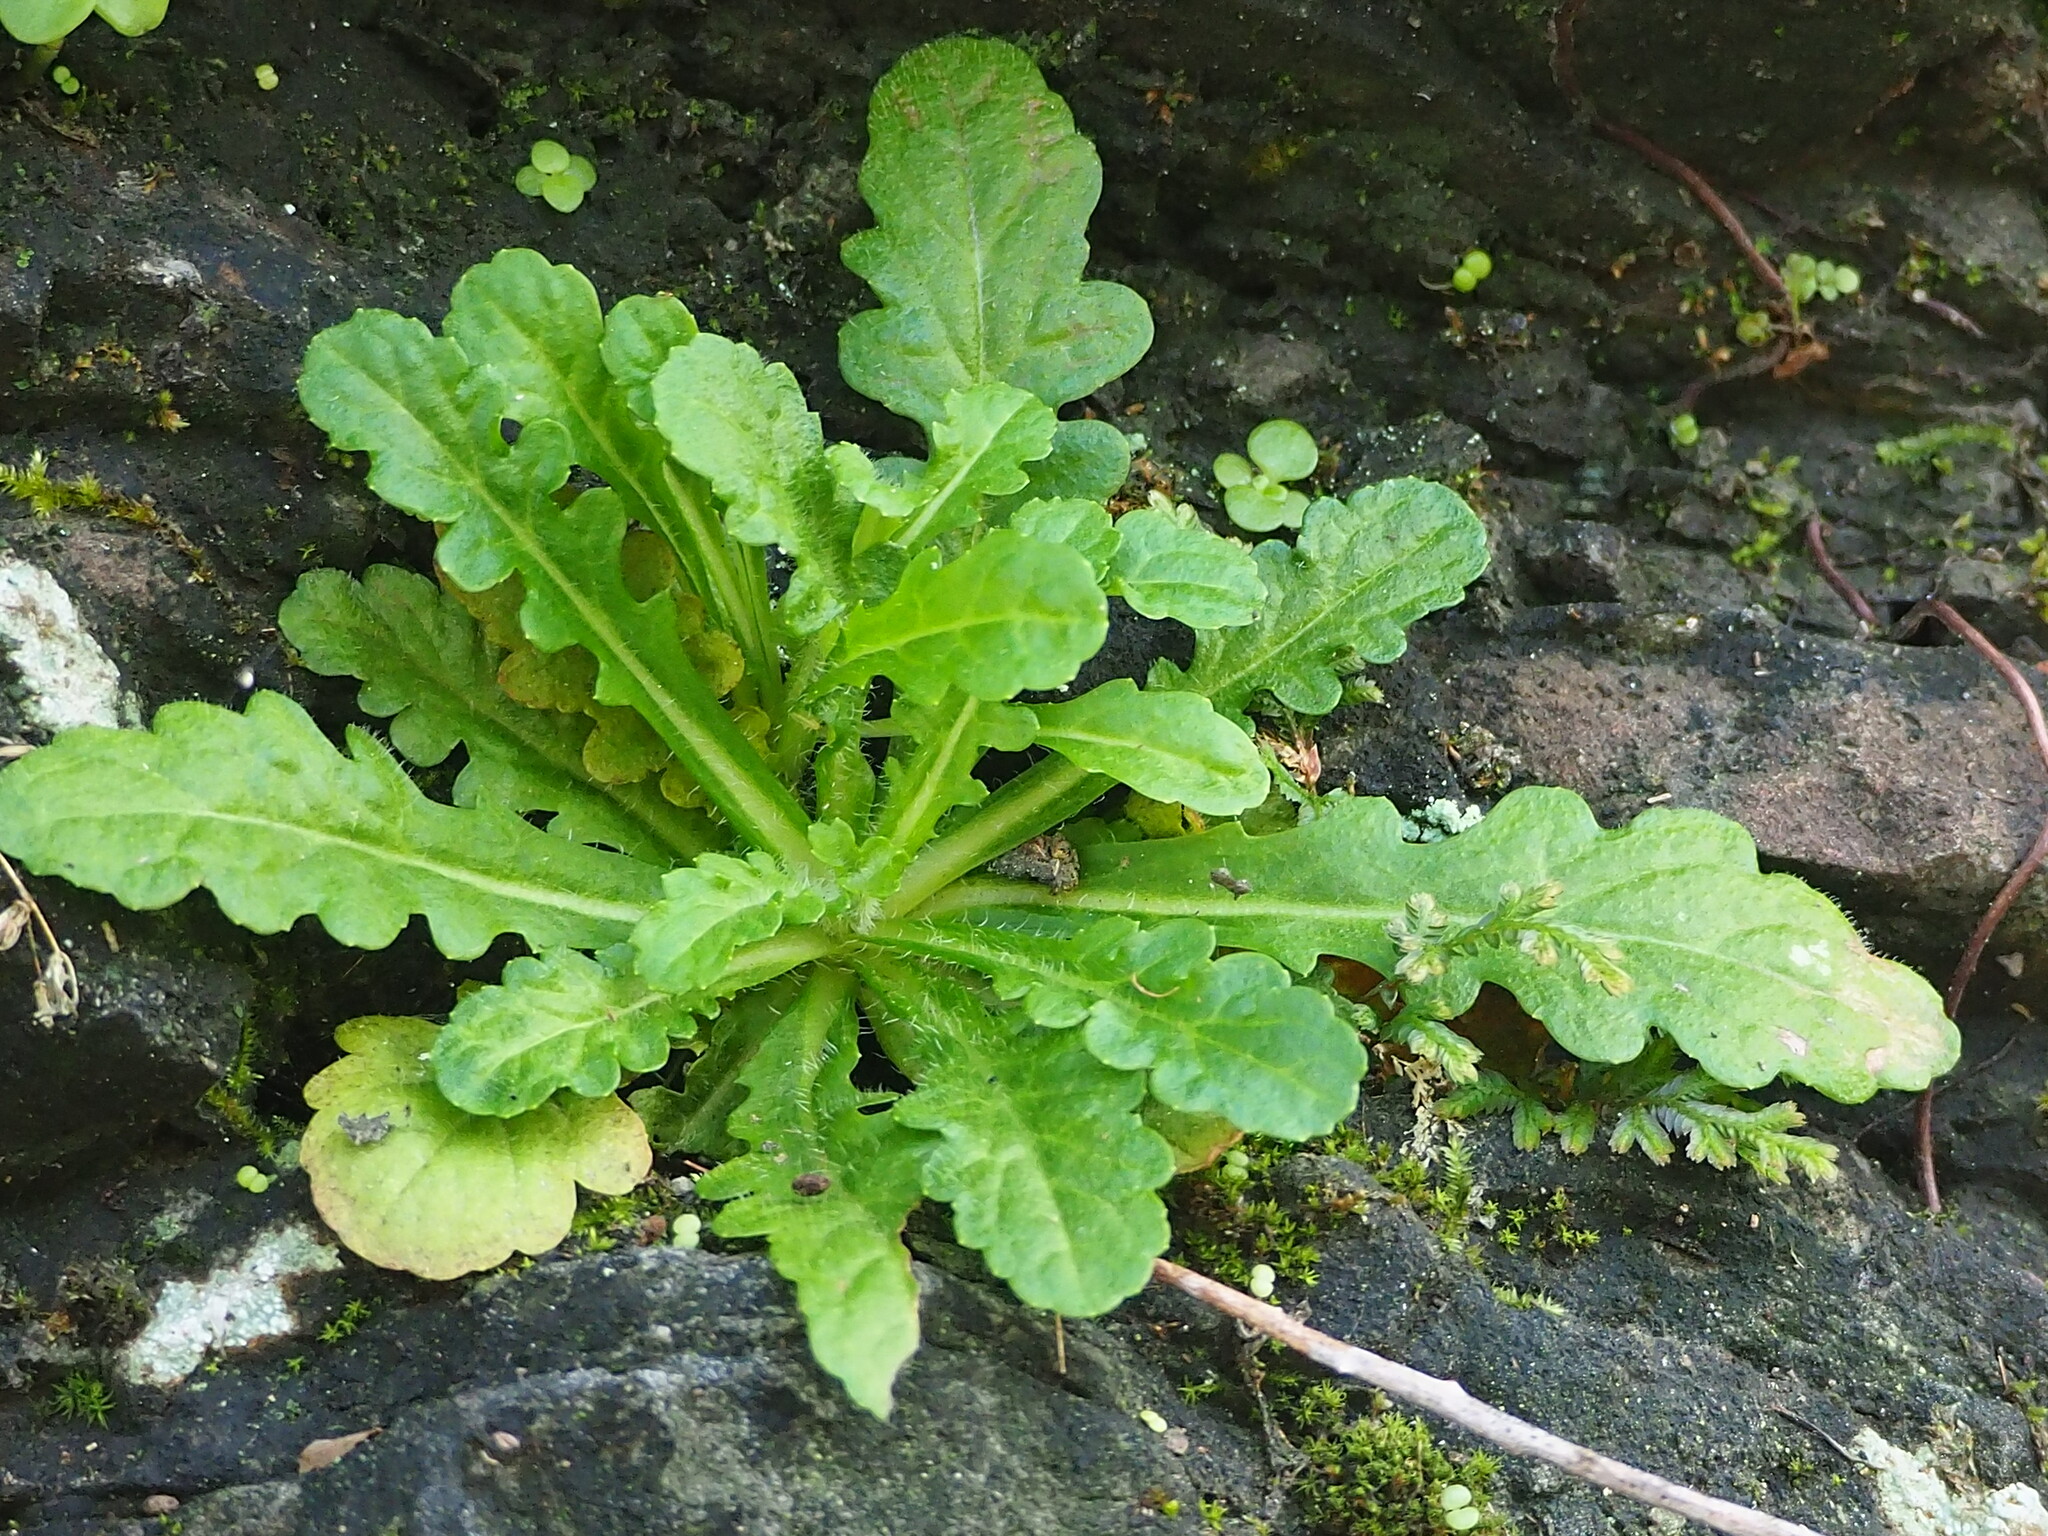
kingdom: Plantae
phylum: Tracheophyta
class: Magnoliopsida
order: Lamiales
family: Mazaceae
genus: Mazus
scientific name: Mazus fauriei
